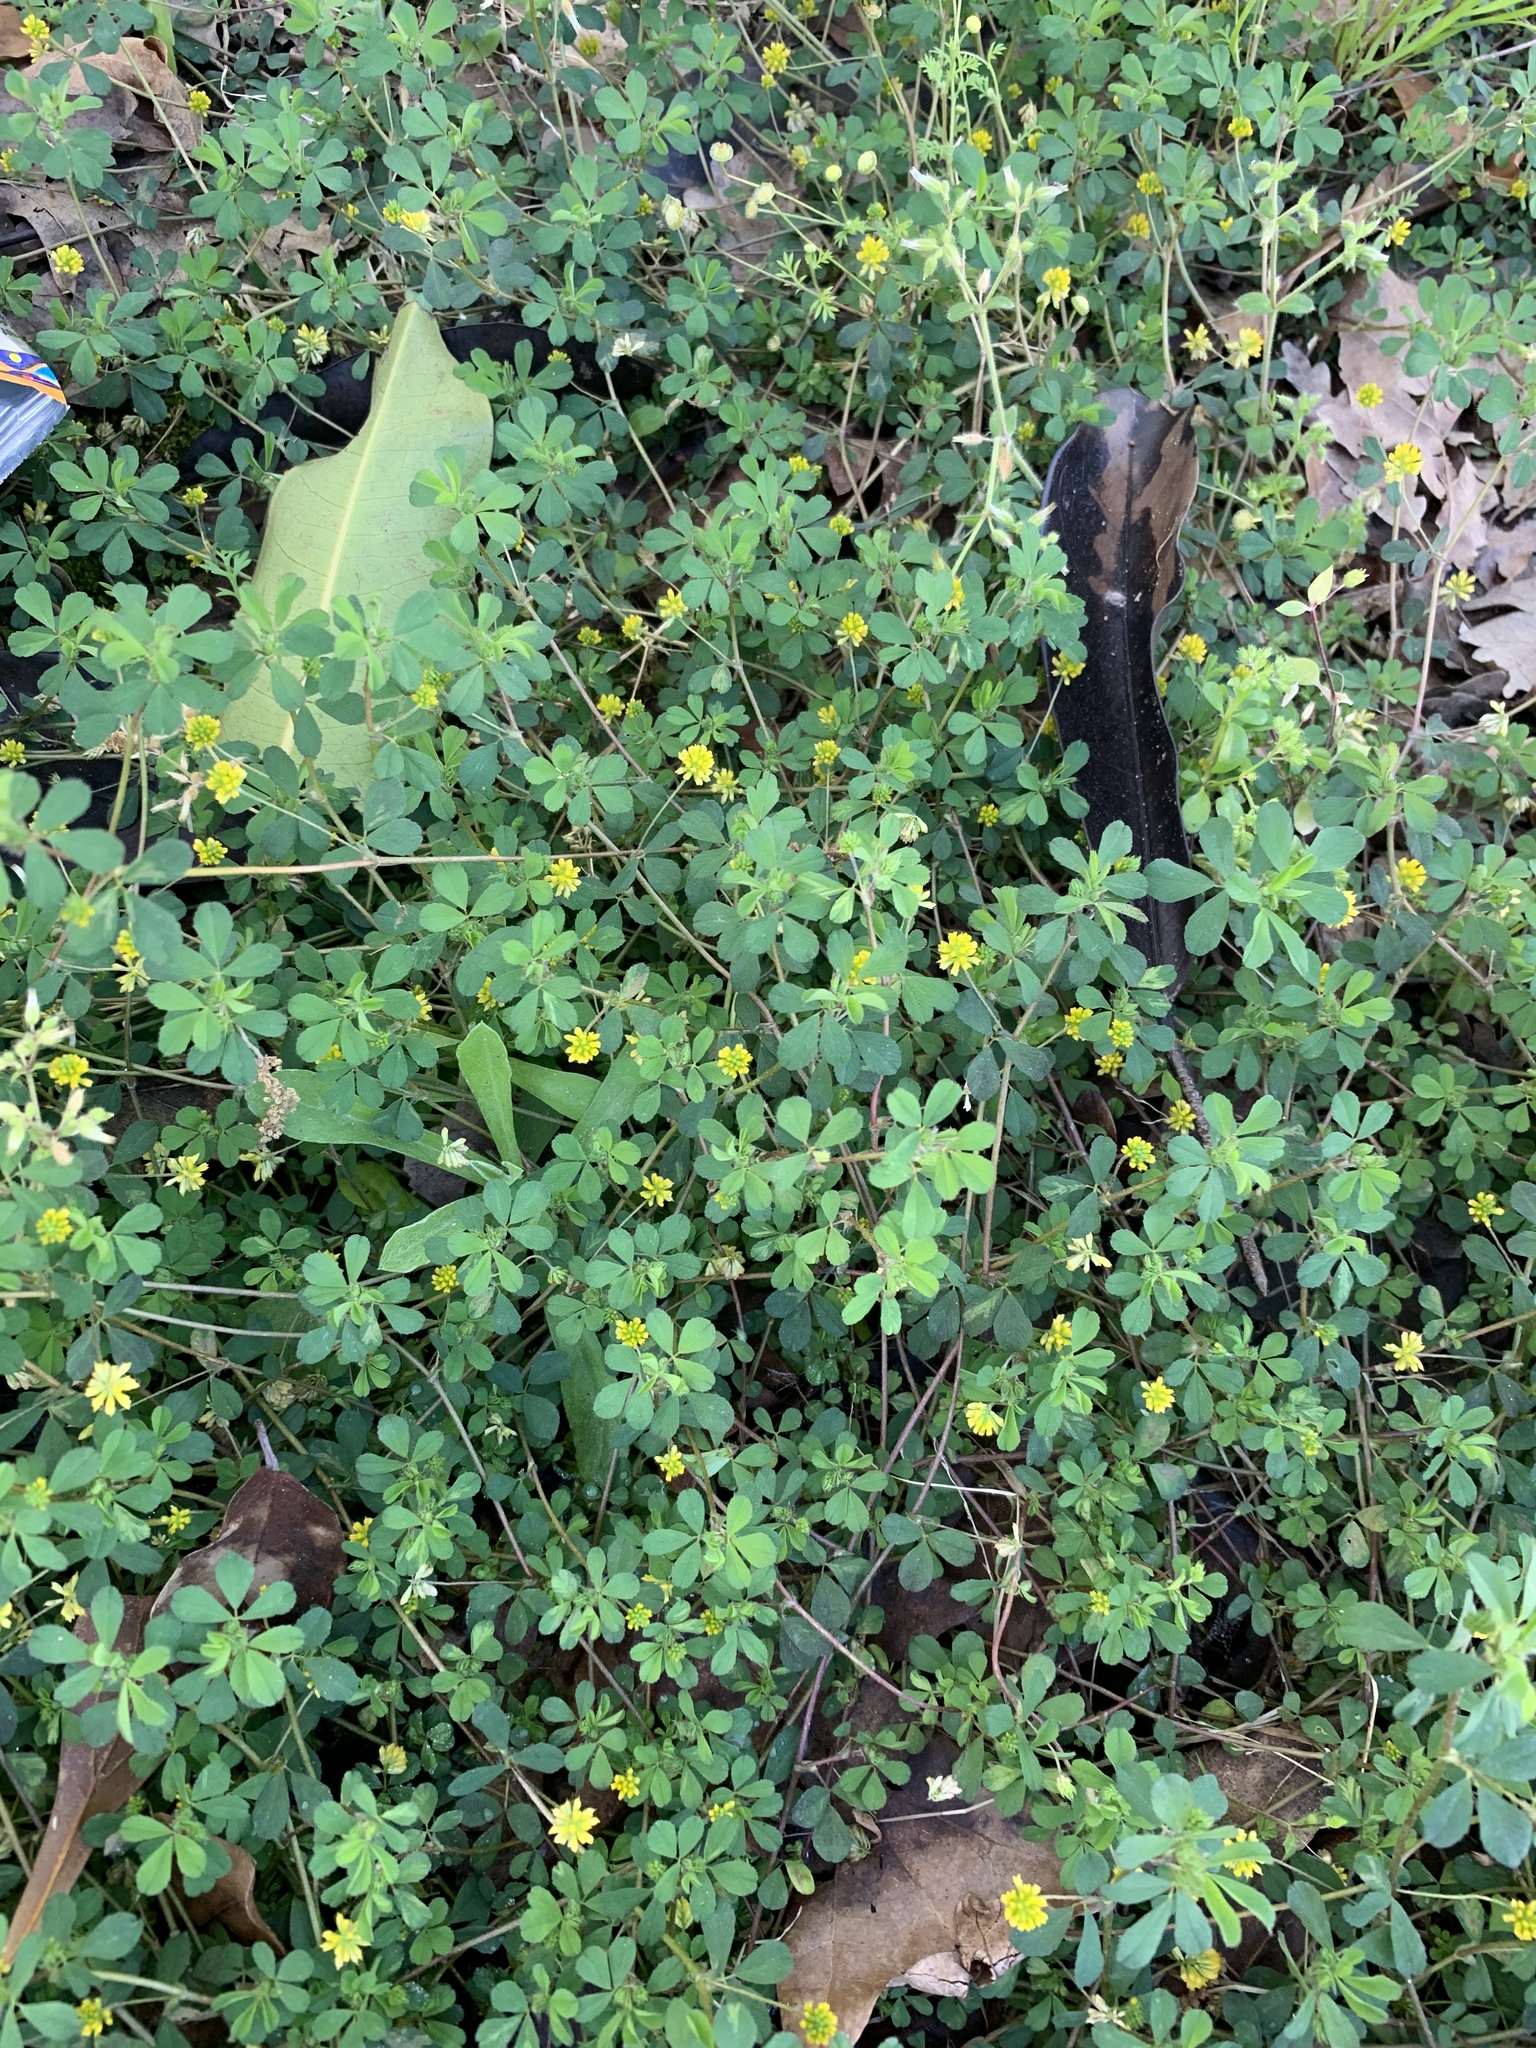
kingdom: Plantae
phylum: Tracheophyta
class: Magnoliopsida
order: Fabales
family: Fabaceae
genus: Trifolium
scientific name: Trifolium dubium
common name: Suckling clover
